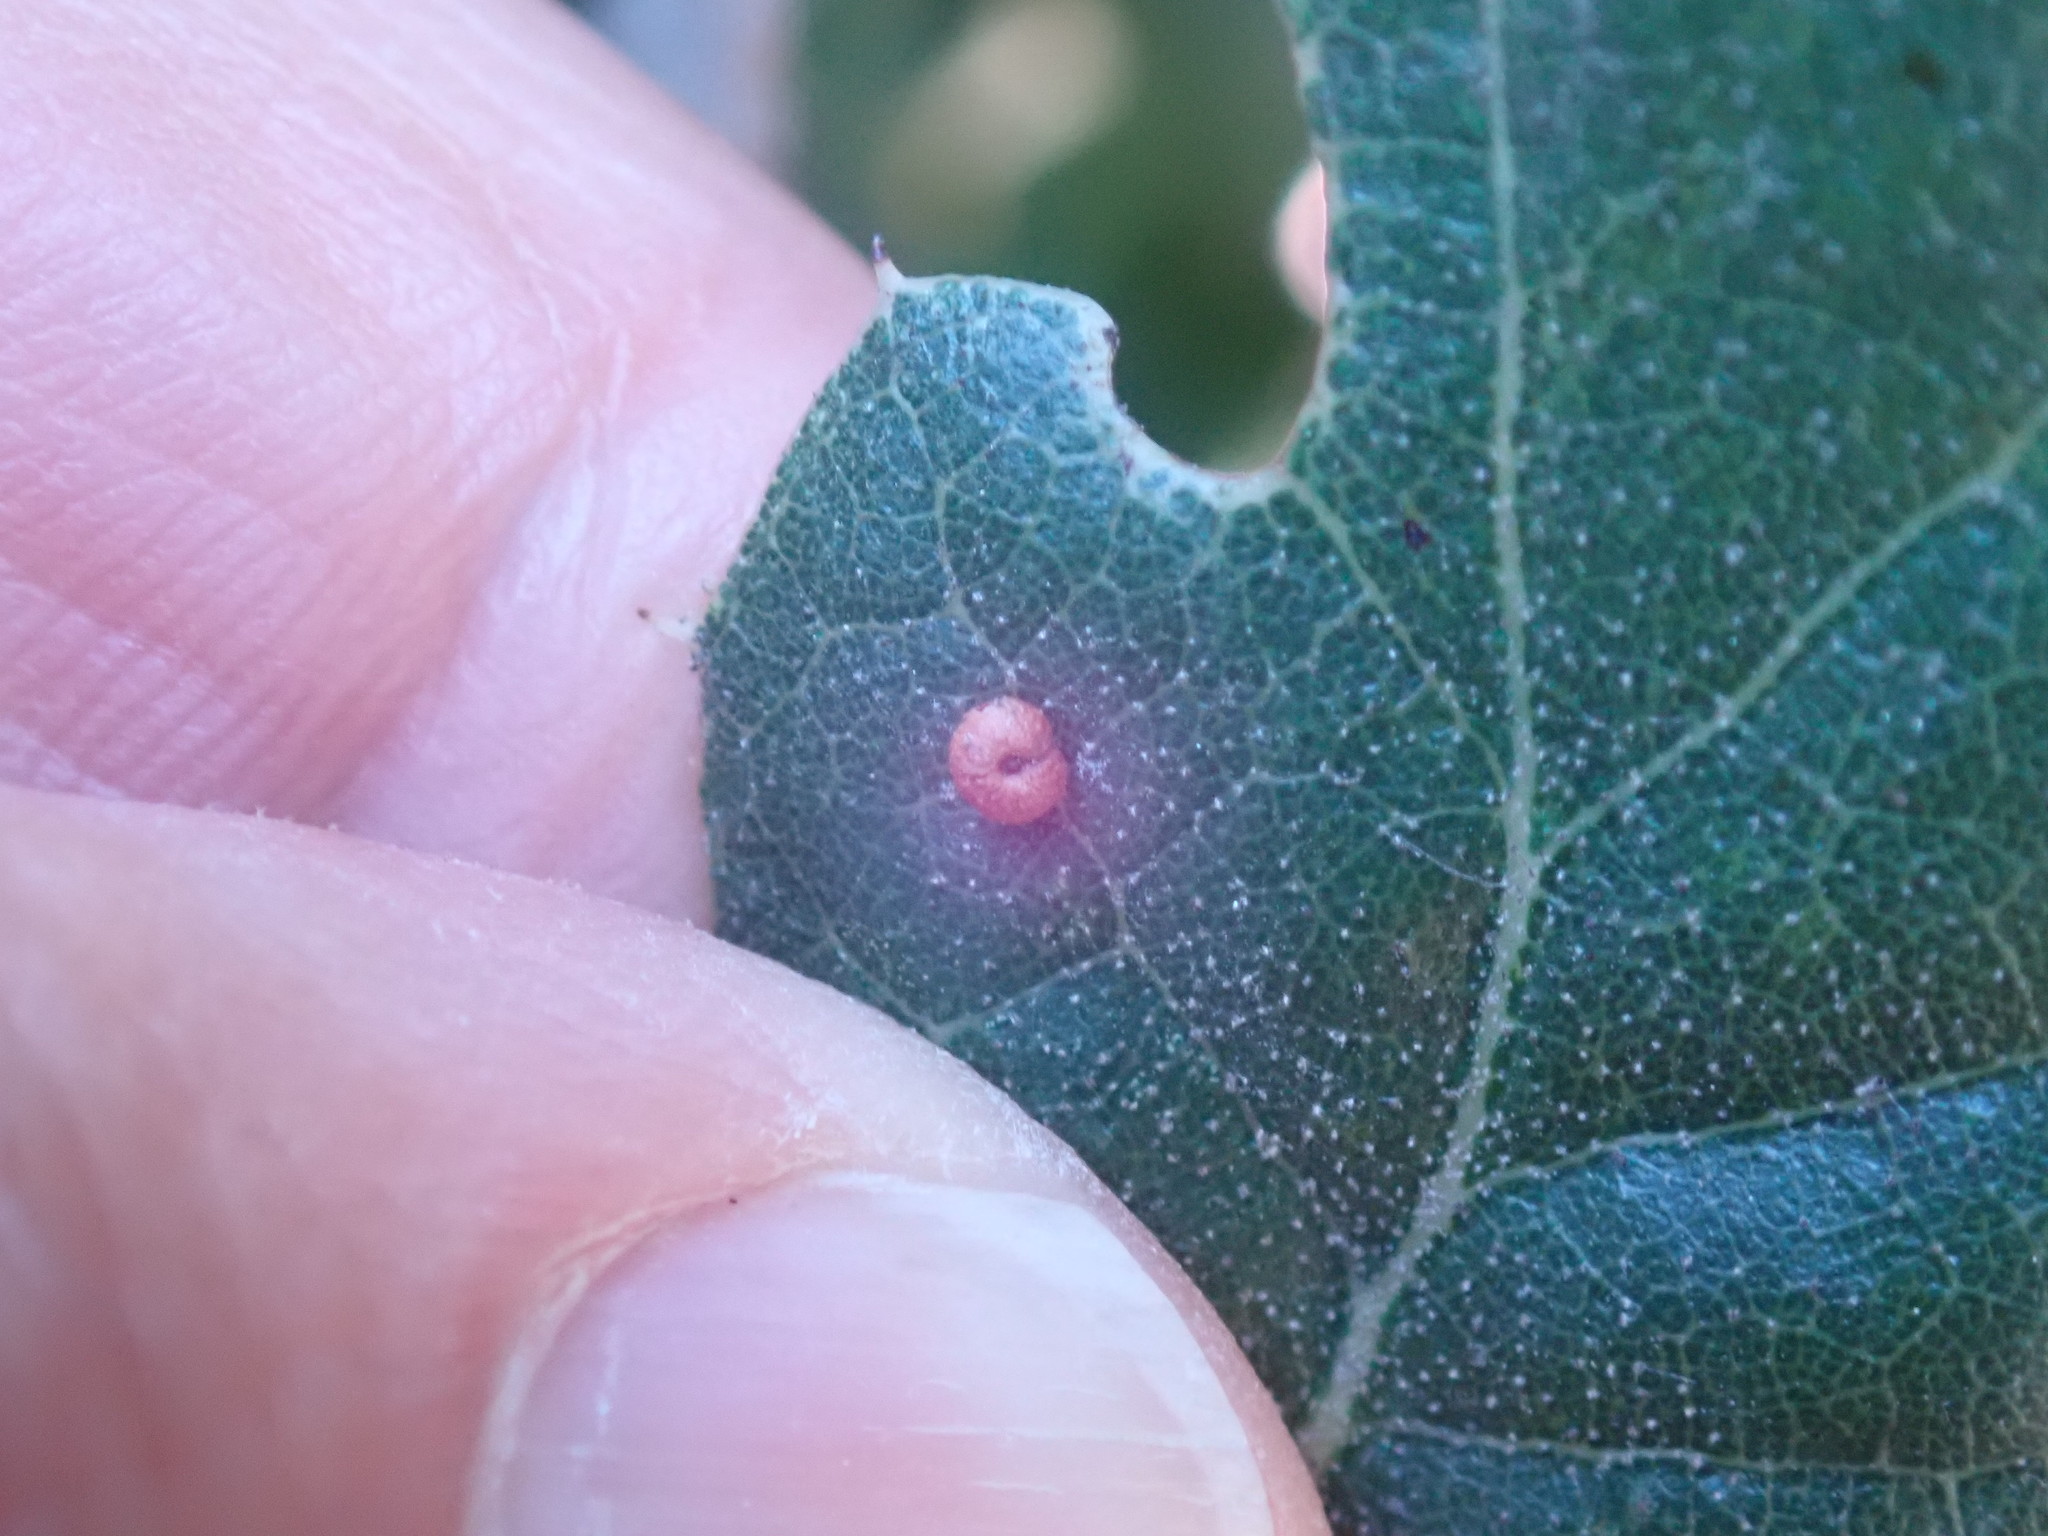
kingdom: Animalia
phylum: Arthropoda
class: Insecta
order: Hymenoptera
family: Cynipidae
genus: Dryocosmus
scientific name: Dryocosmus
